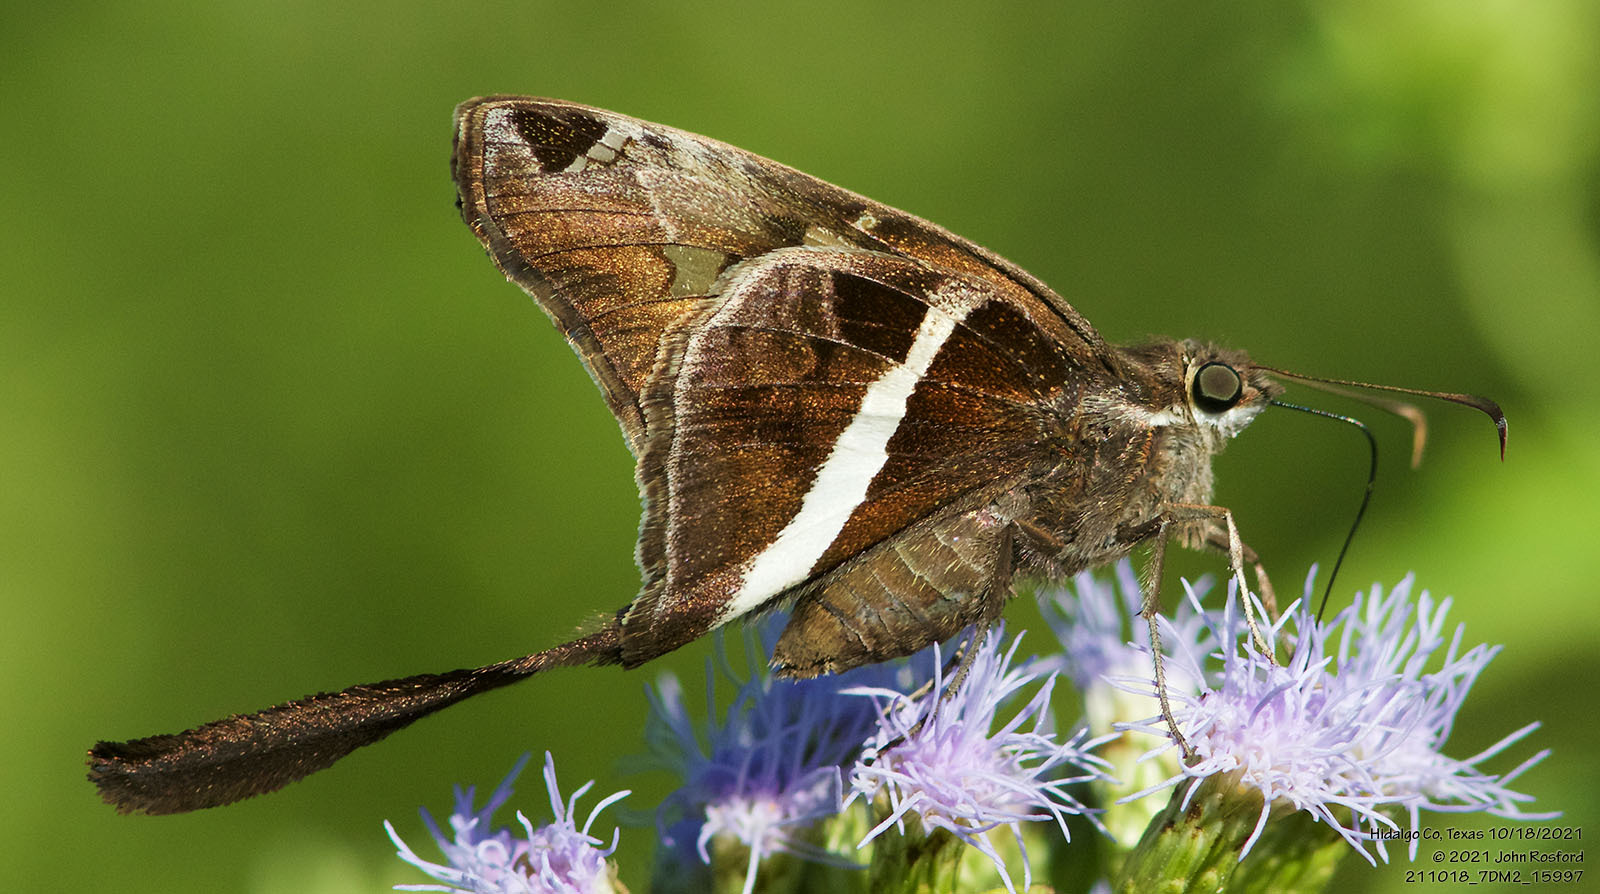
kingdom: Animalia
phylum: Arthropoda
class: Insecta
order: Lepidoptera
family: Hesperiidae
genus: Chioides
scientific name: Chioides catillus
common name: Silverbanded skipper
